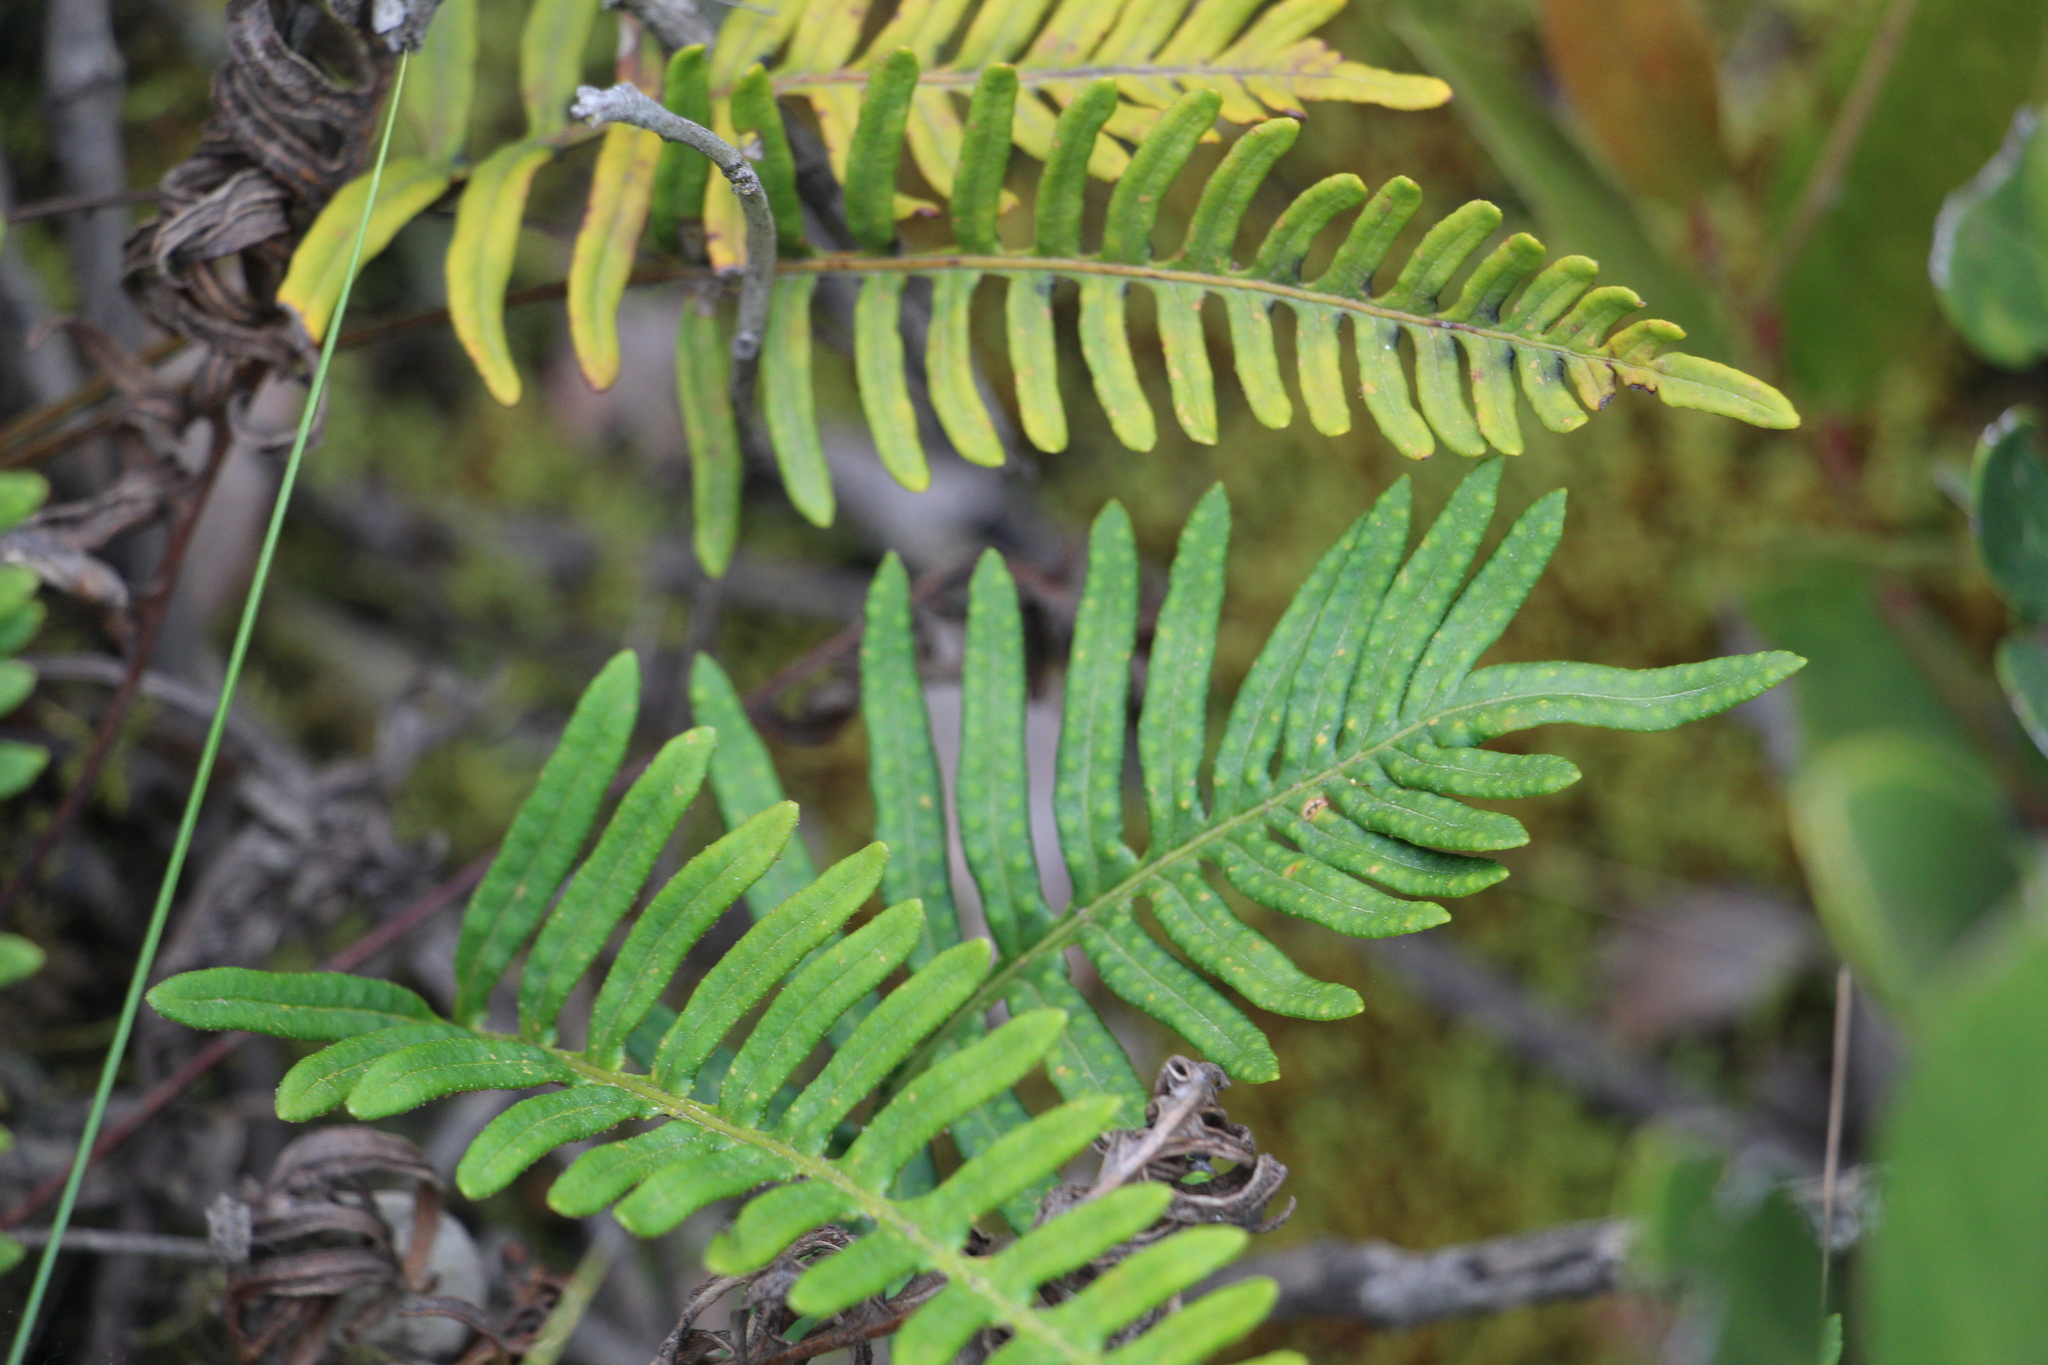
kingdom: Plantae
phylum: Tracheophyta
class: Polypodiopsida
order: Polypodiales
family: Polypodiaceae
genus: Pleopeltis
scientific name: Pleopeltis orientalis
